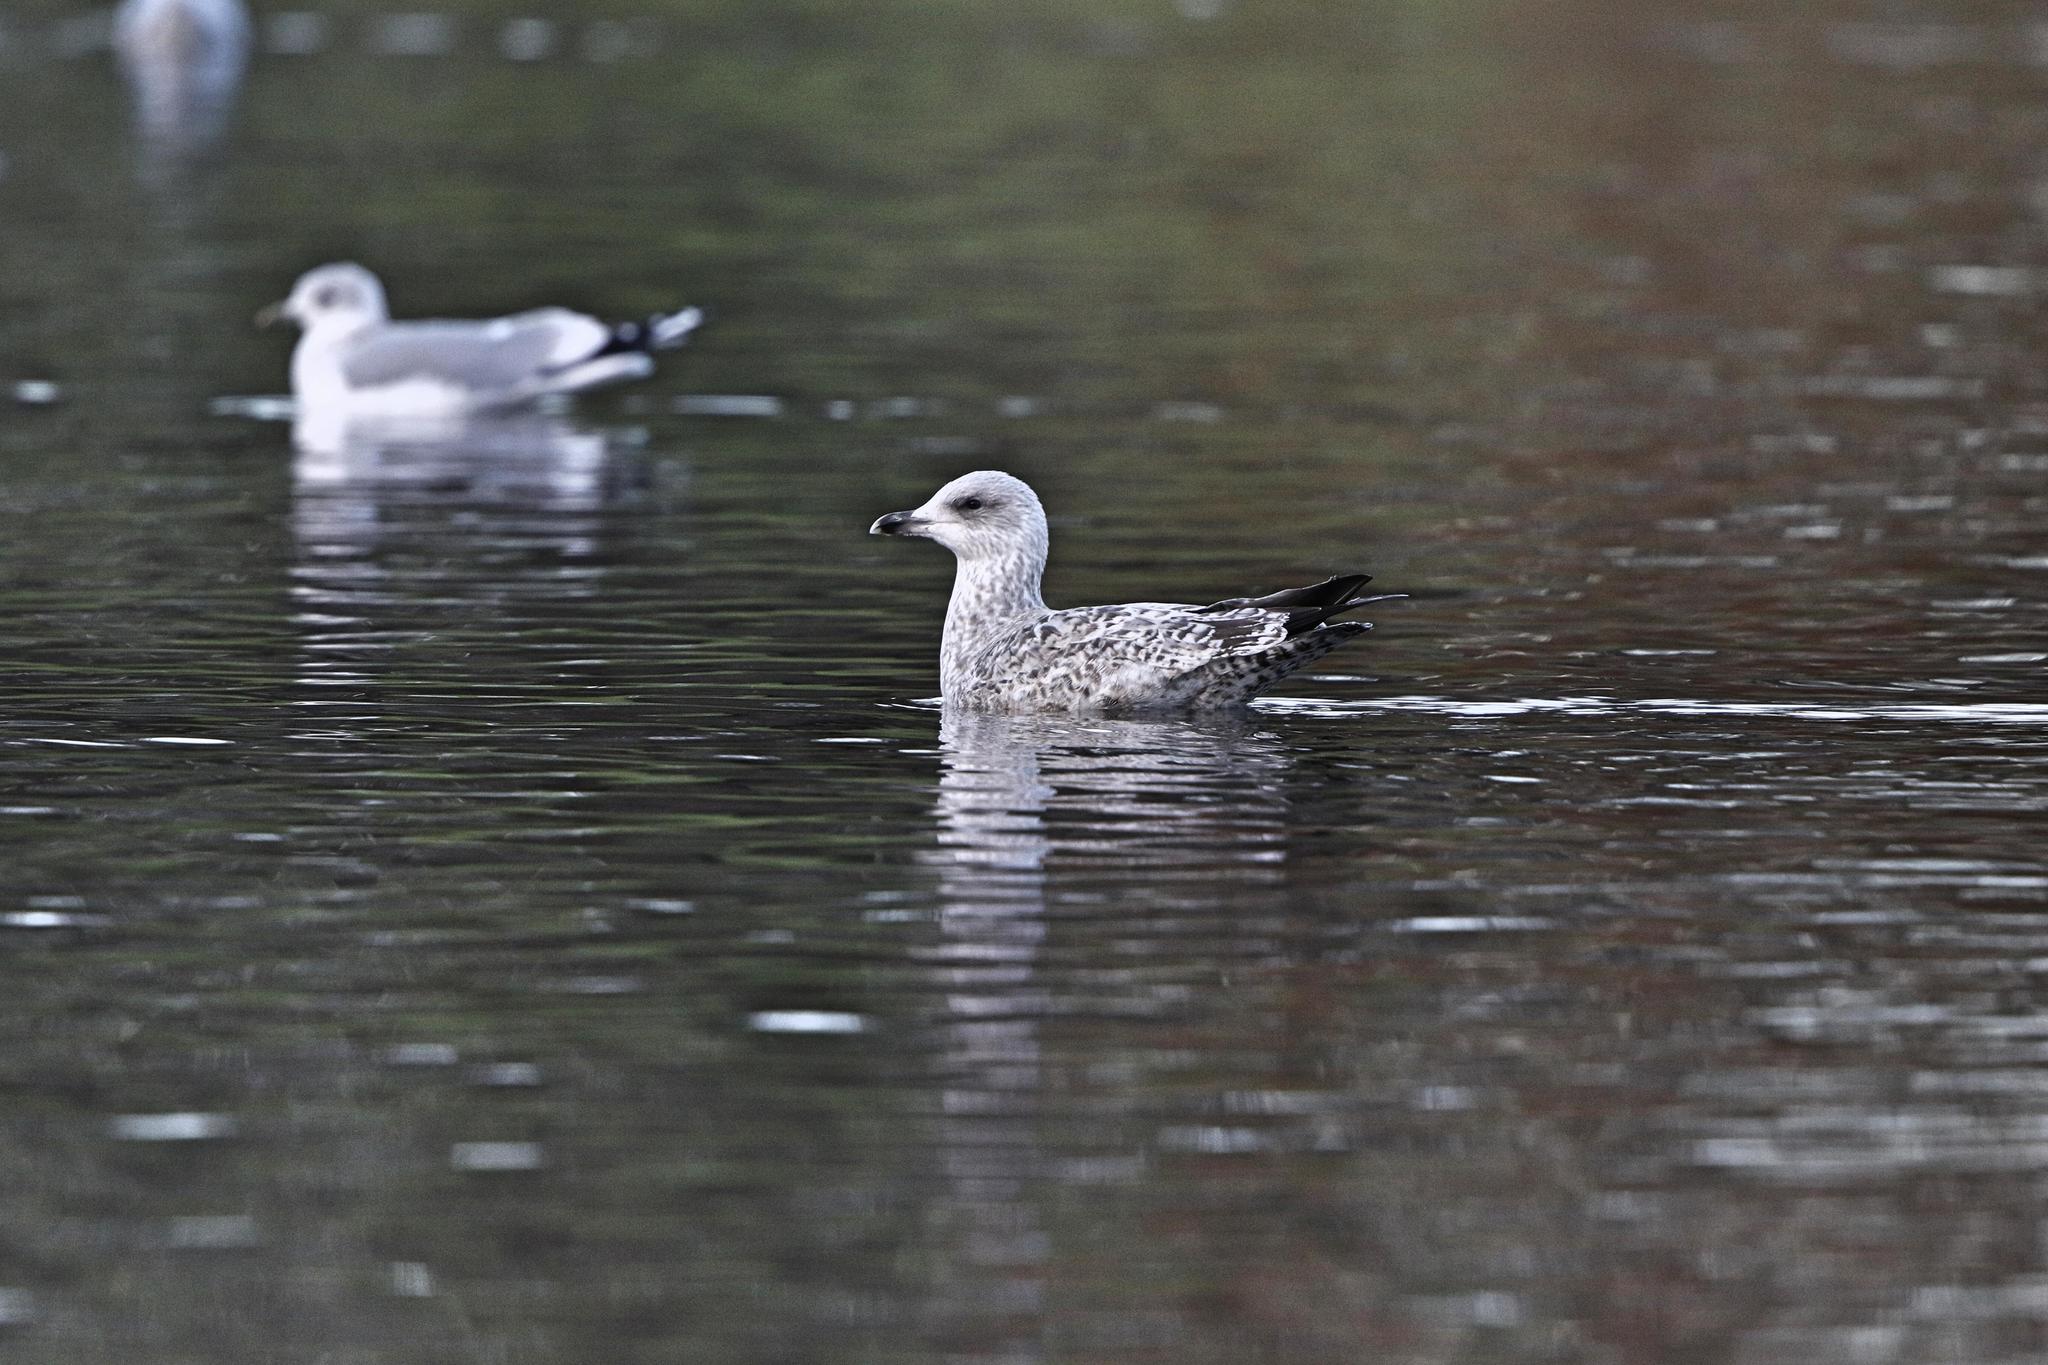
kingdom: Animalia
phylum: Chordata
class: Aves
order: Charadriiformes
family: Laridae
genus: Larus
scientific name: Larus argentatus
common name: Herring gull
